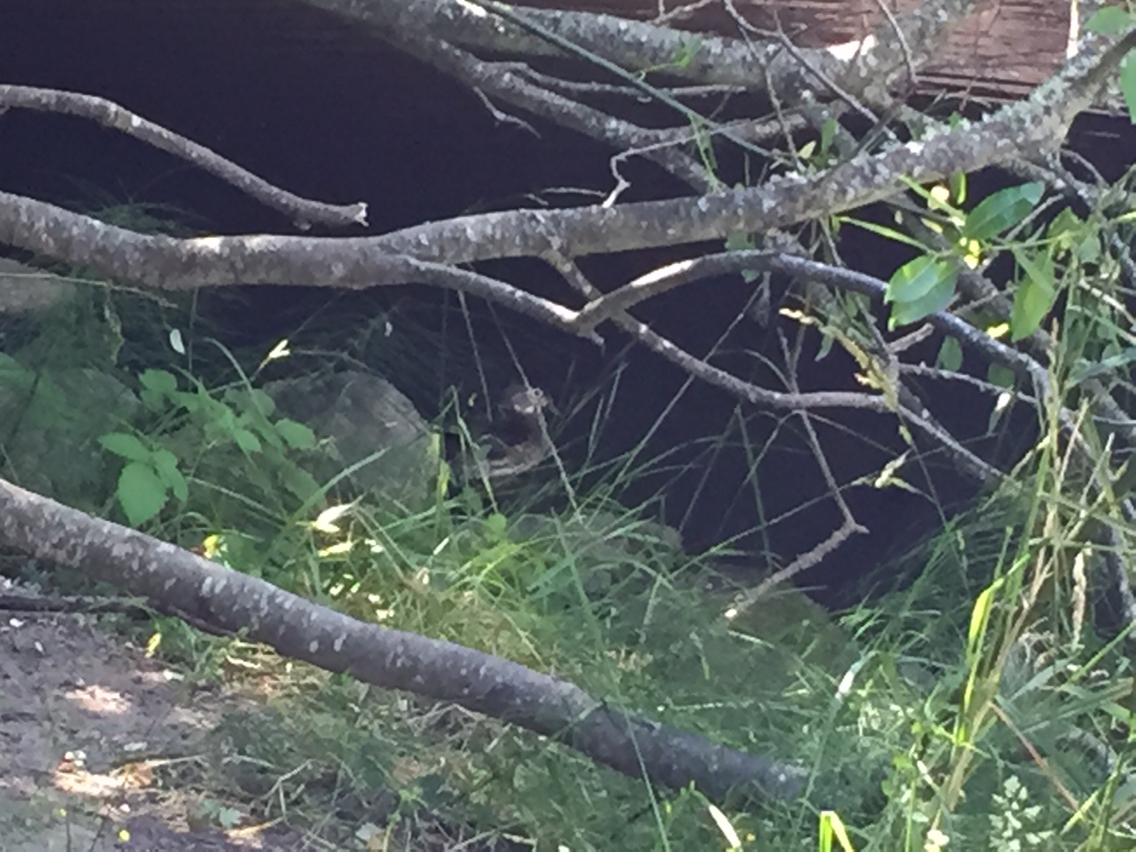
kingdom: Animalia
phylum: Chordata
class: Aves
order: Anseriformes
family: Anatidae
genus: Aix
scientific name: Aix sponsa
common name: Wood duck
